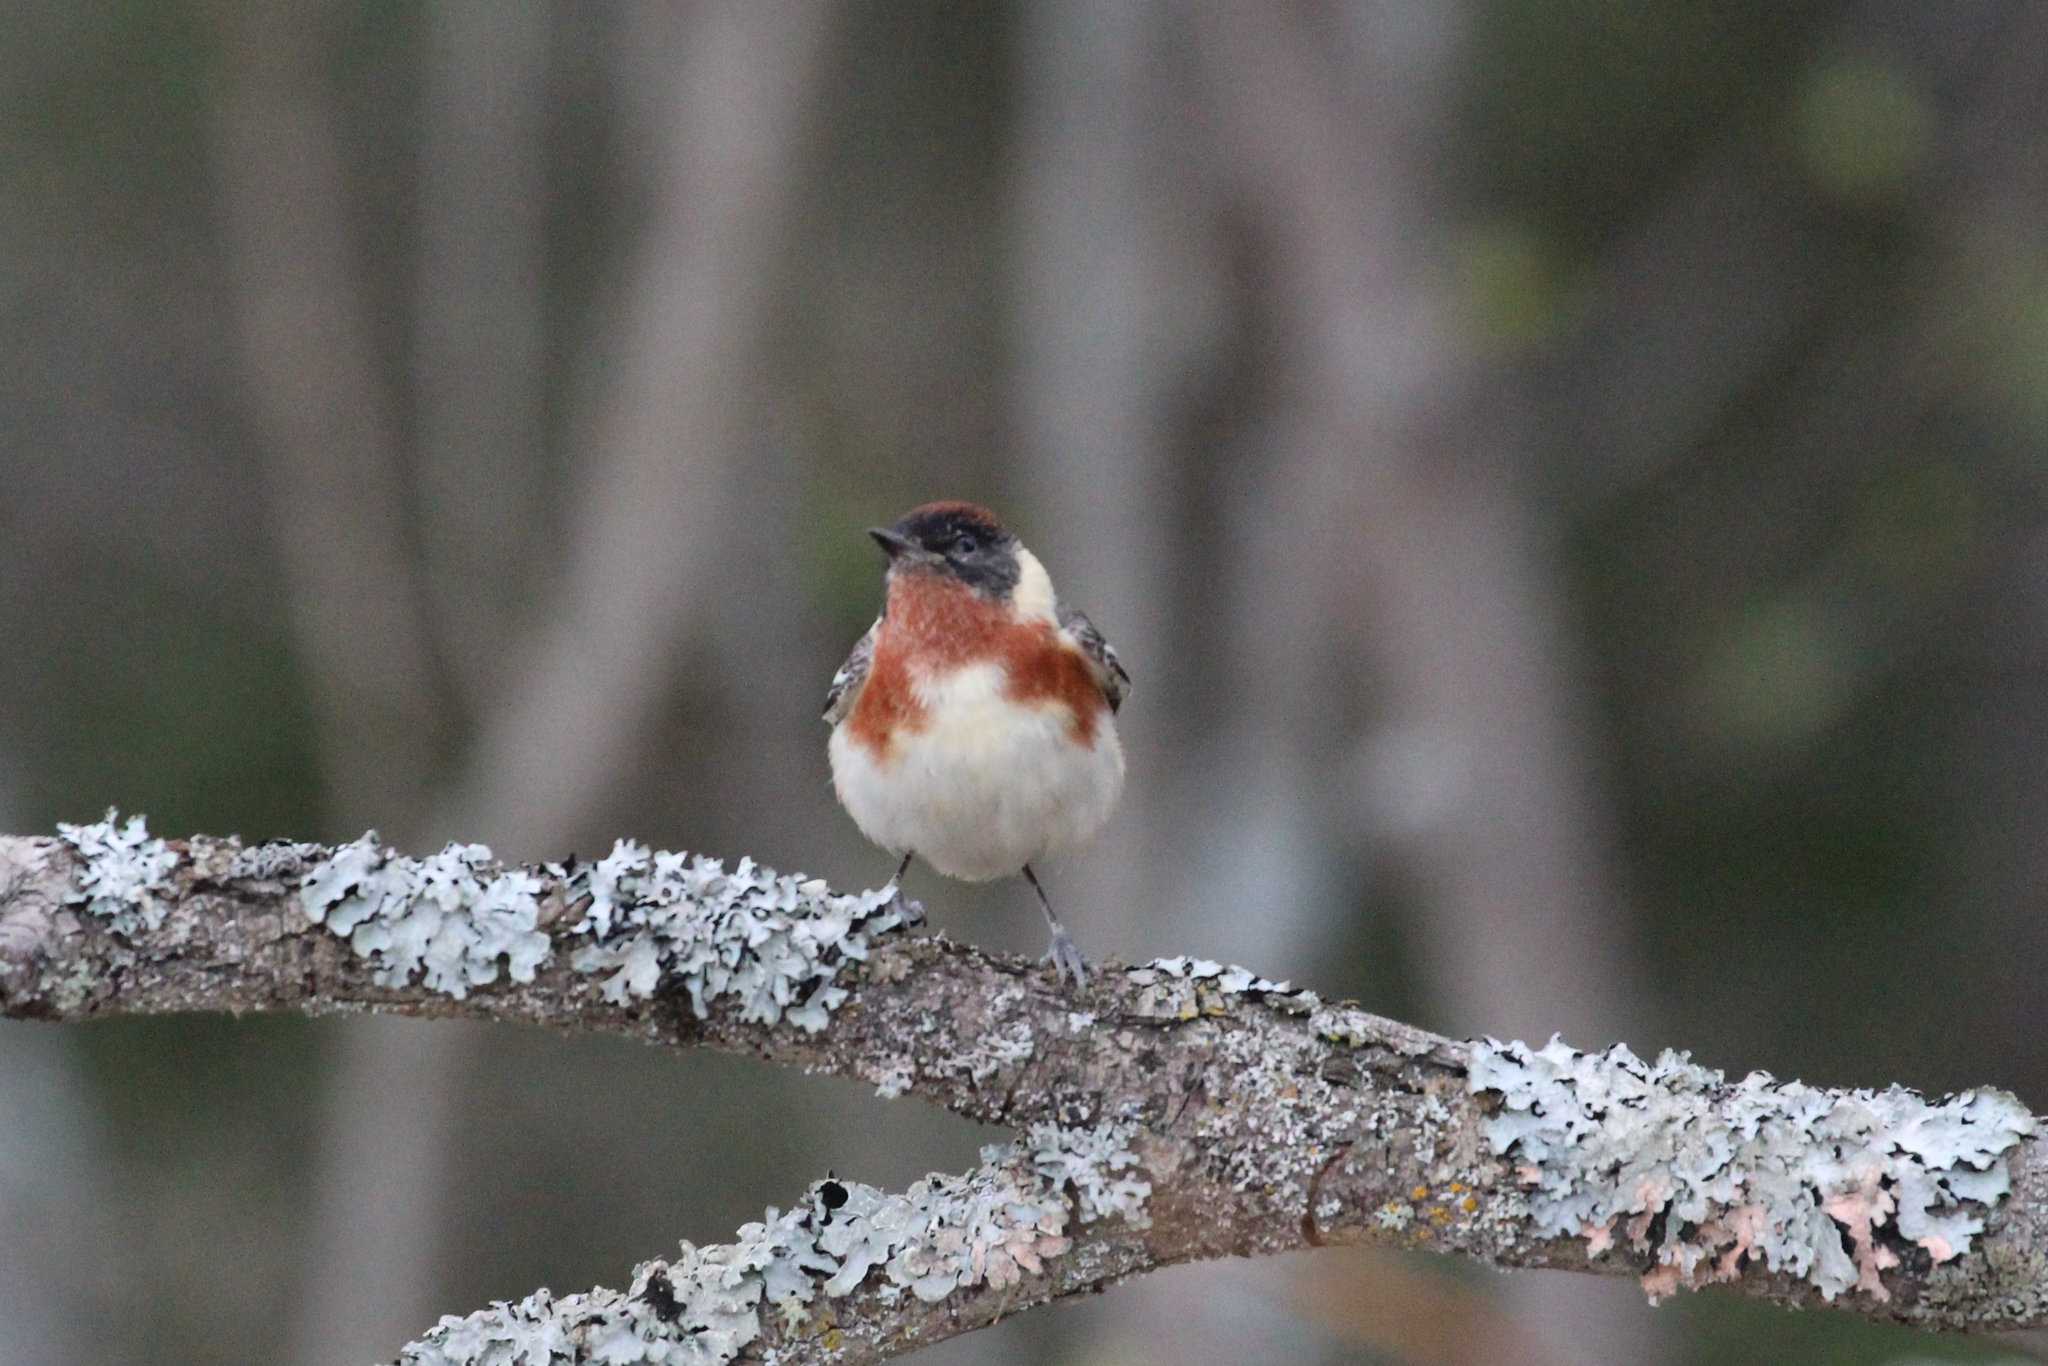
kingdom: Animalia
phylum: Chordata
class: Aves
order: Passeriformes
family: Parulidae
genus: Setophaga
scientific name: Setophaga castanea
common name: Bay-breasted warbler
